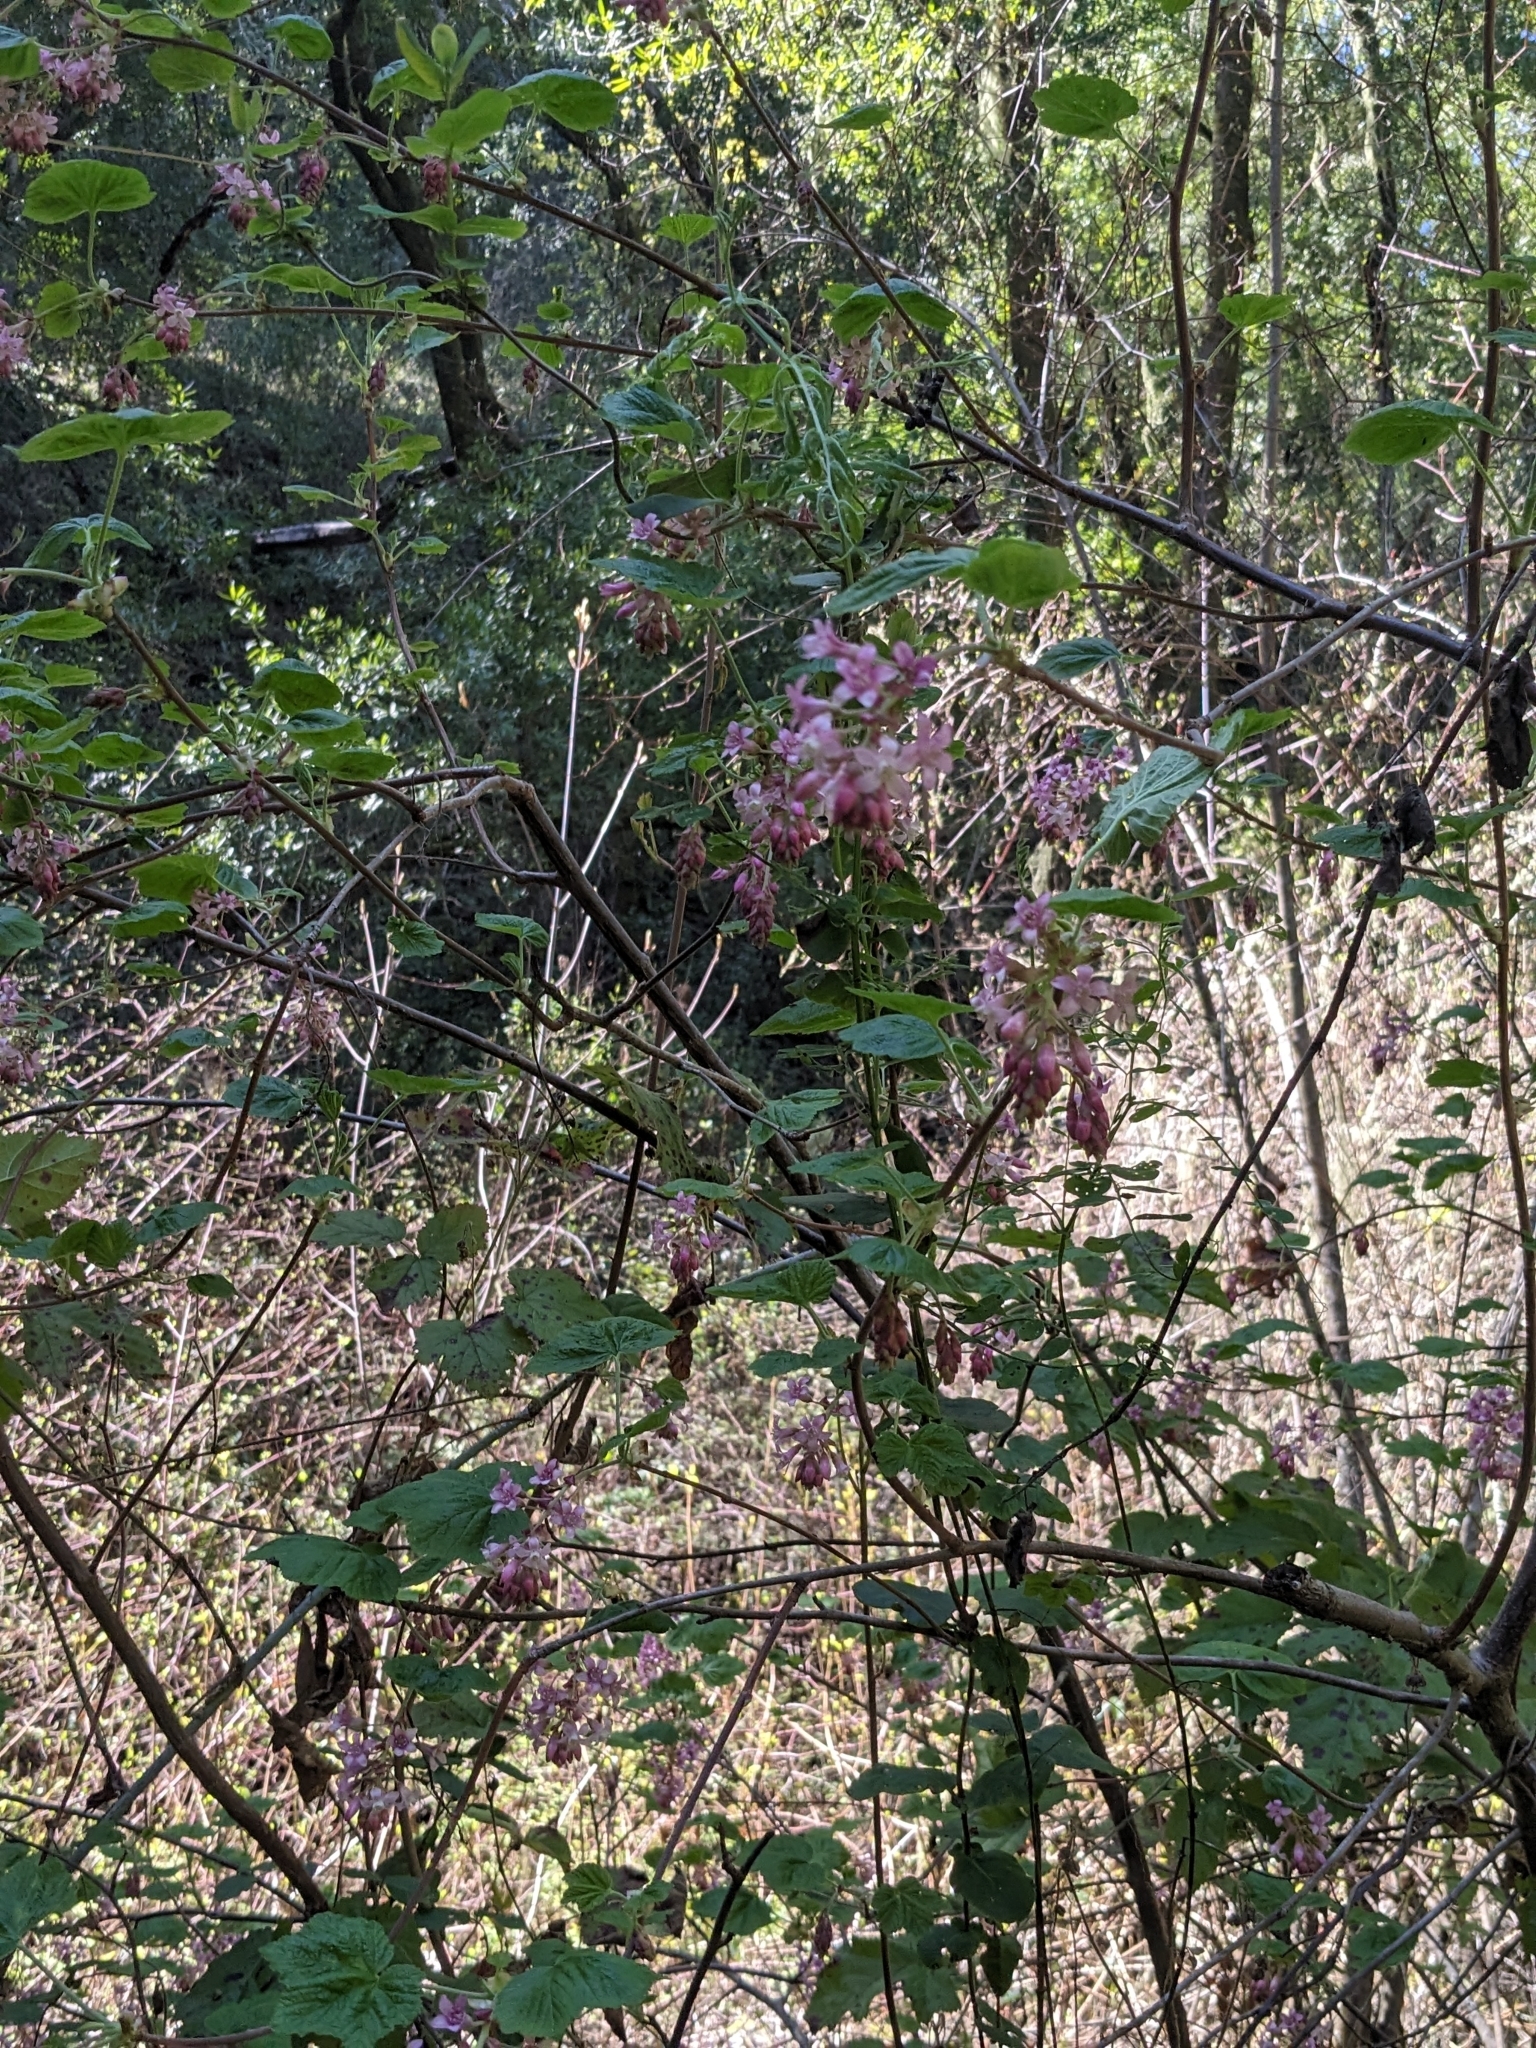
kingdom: Plantae
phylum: Tracheophyta
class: Magnoliopsida
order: Saxifragales
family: Grossulariaceae
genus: Ribes
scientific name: Ribes sanguineum
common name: Flowering currant
